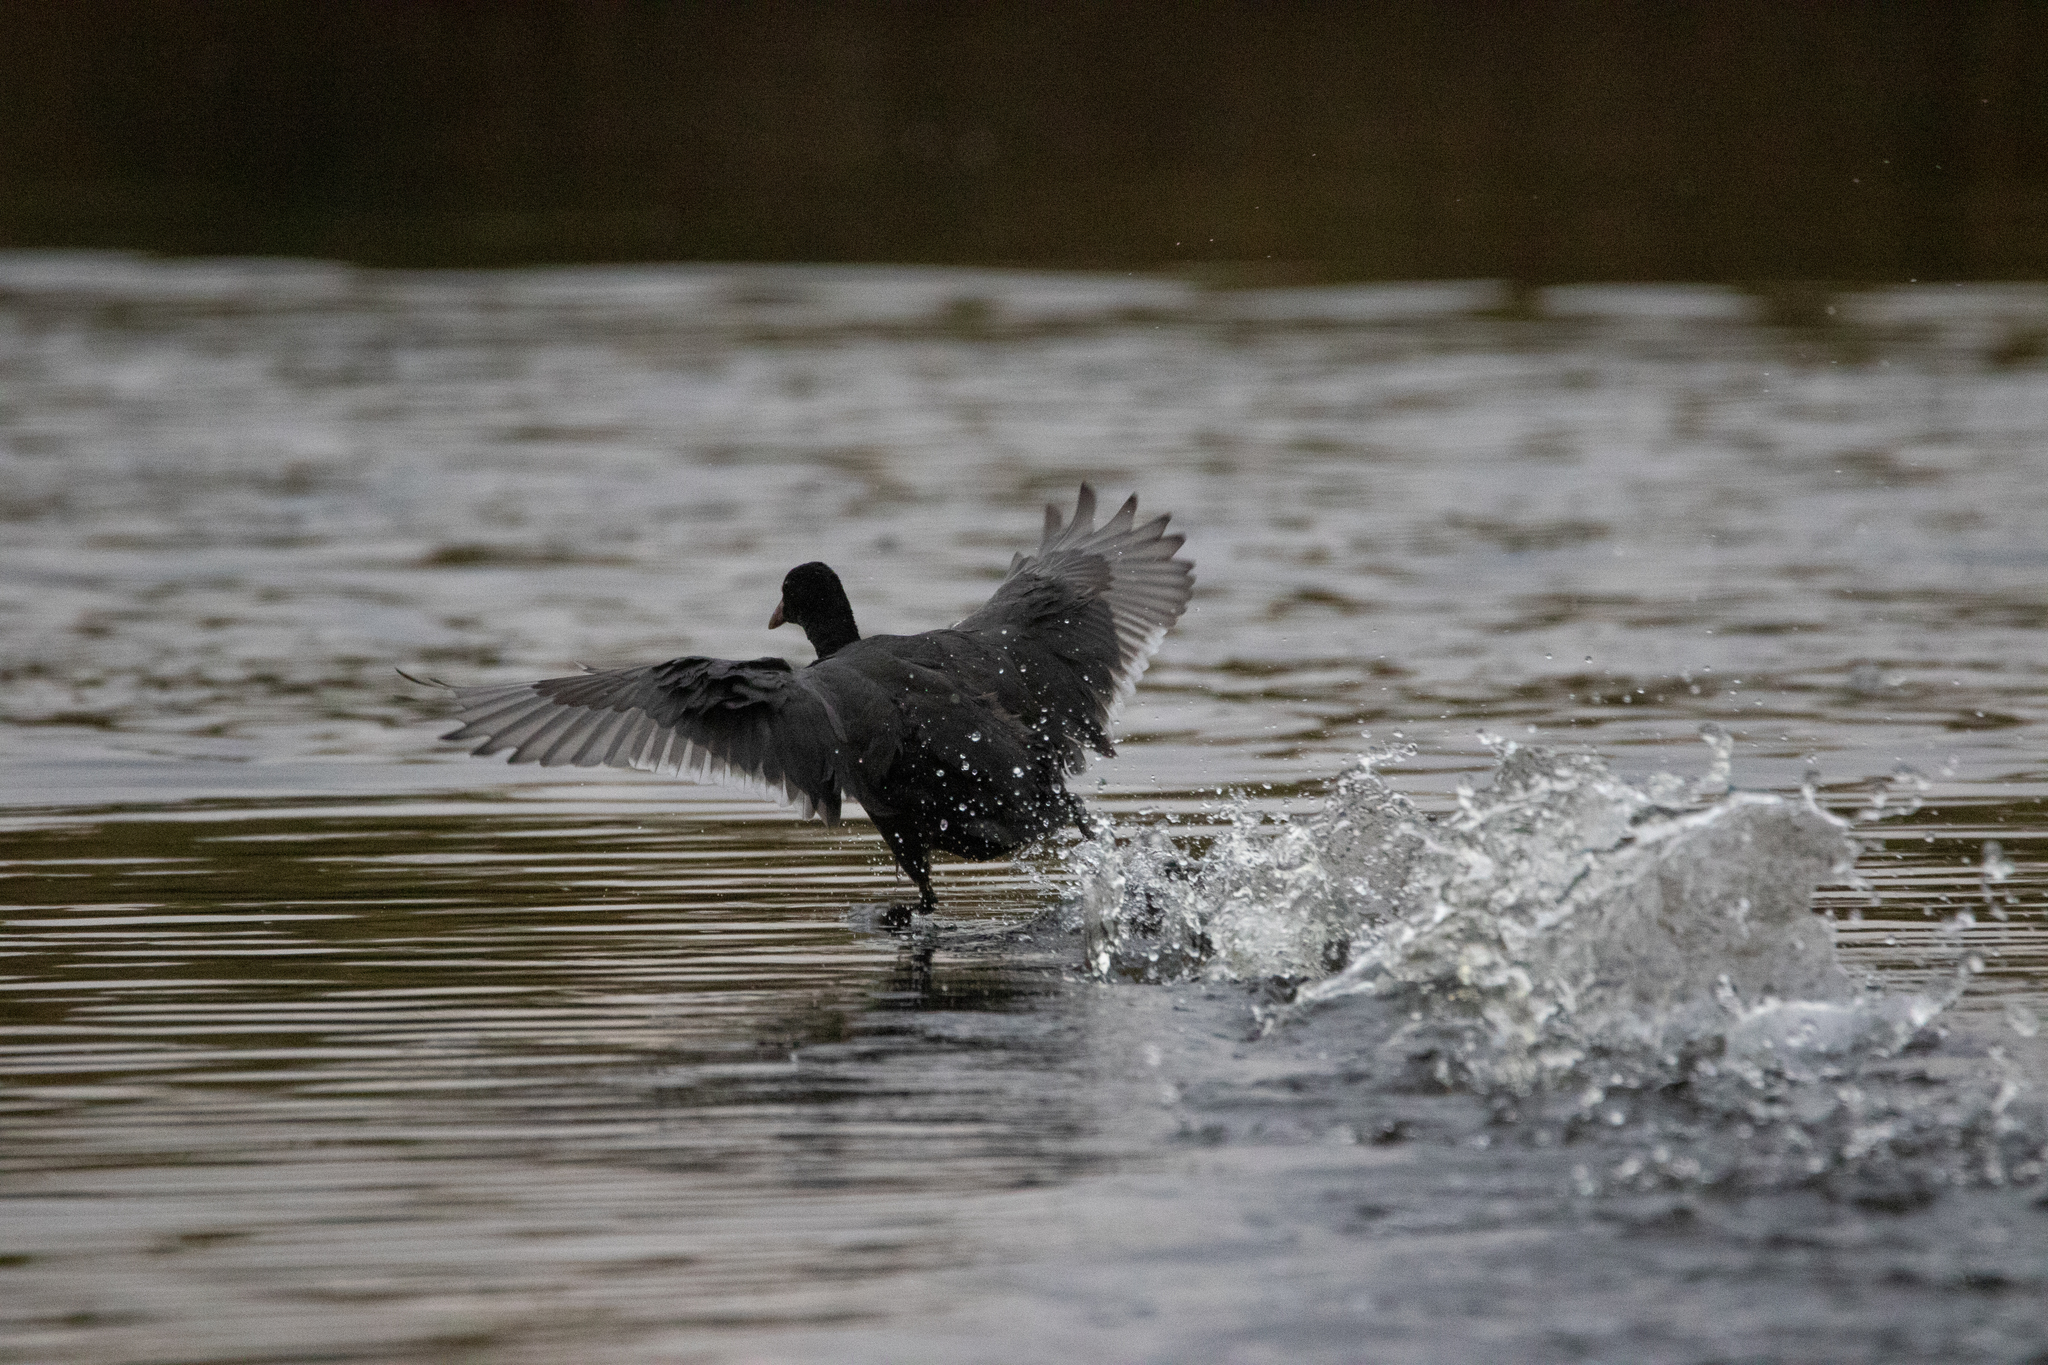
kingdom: Animalia
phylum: Chordata
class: Aves
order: Gruiformes
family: Rallidae
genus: Fulica
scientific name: Fulica atra
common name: Eurasian coot
